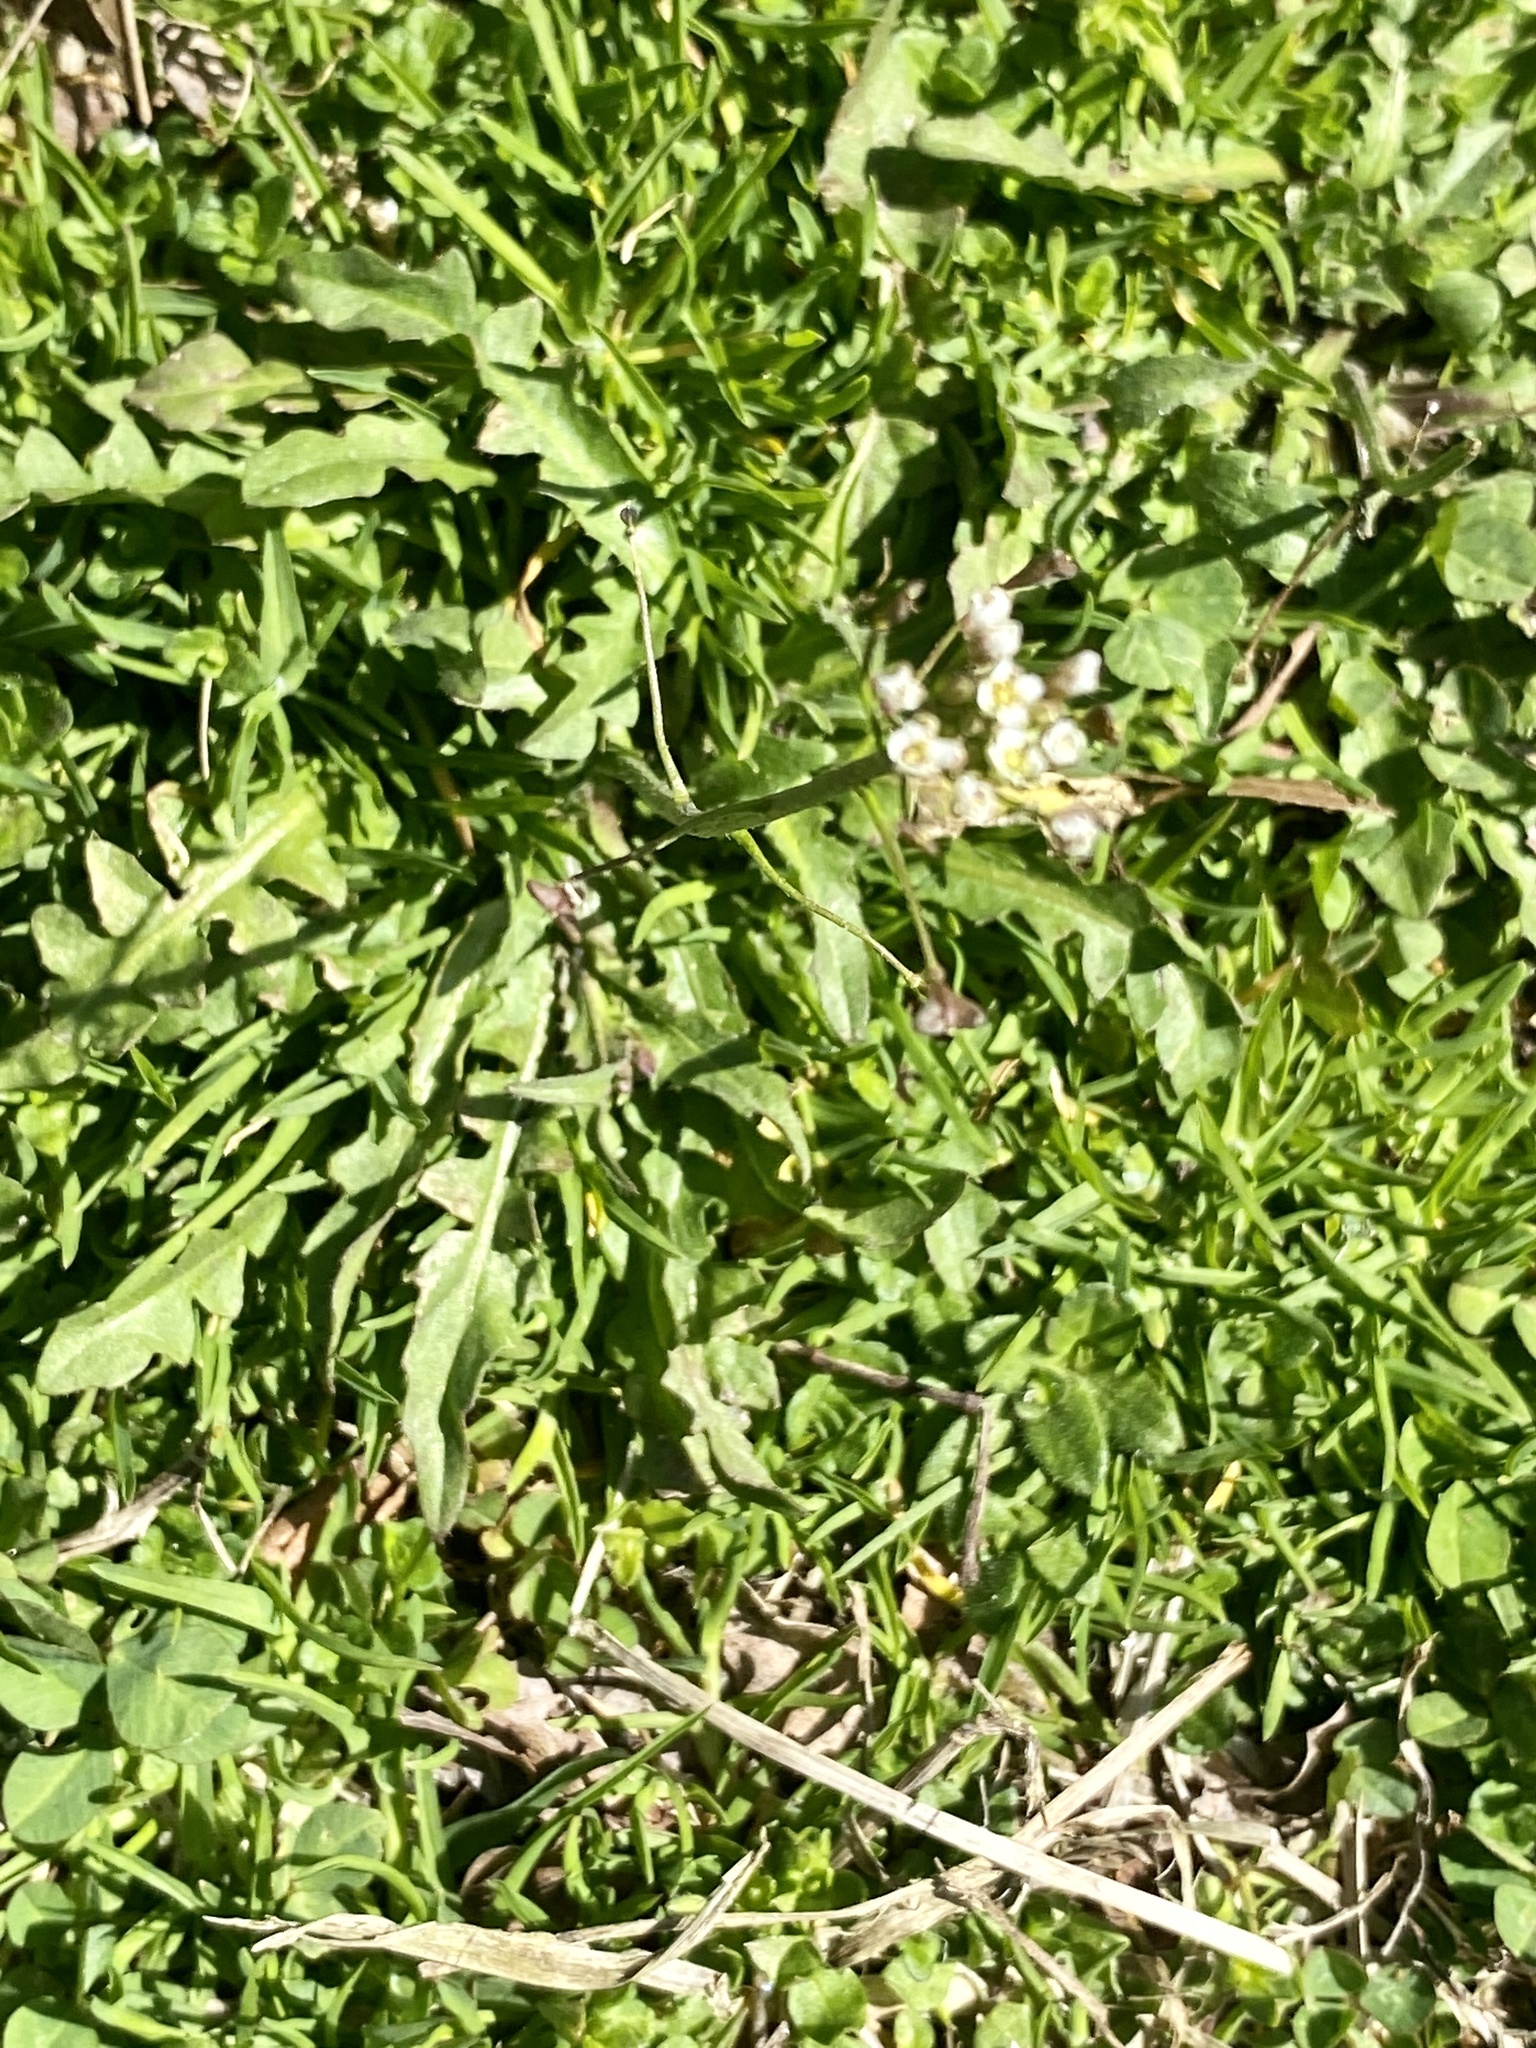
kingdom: Plantae
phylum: Tracheophyta
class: Magnoliopsida
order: Brassicales
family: Brassicaceae
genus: Capsella
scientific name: Capsella bursa-pastoris
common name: Shepherd's purse
